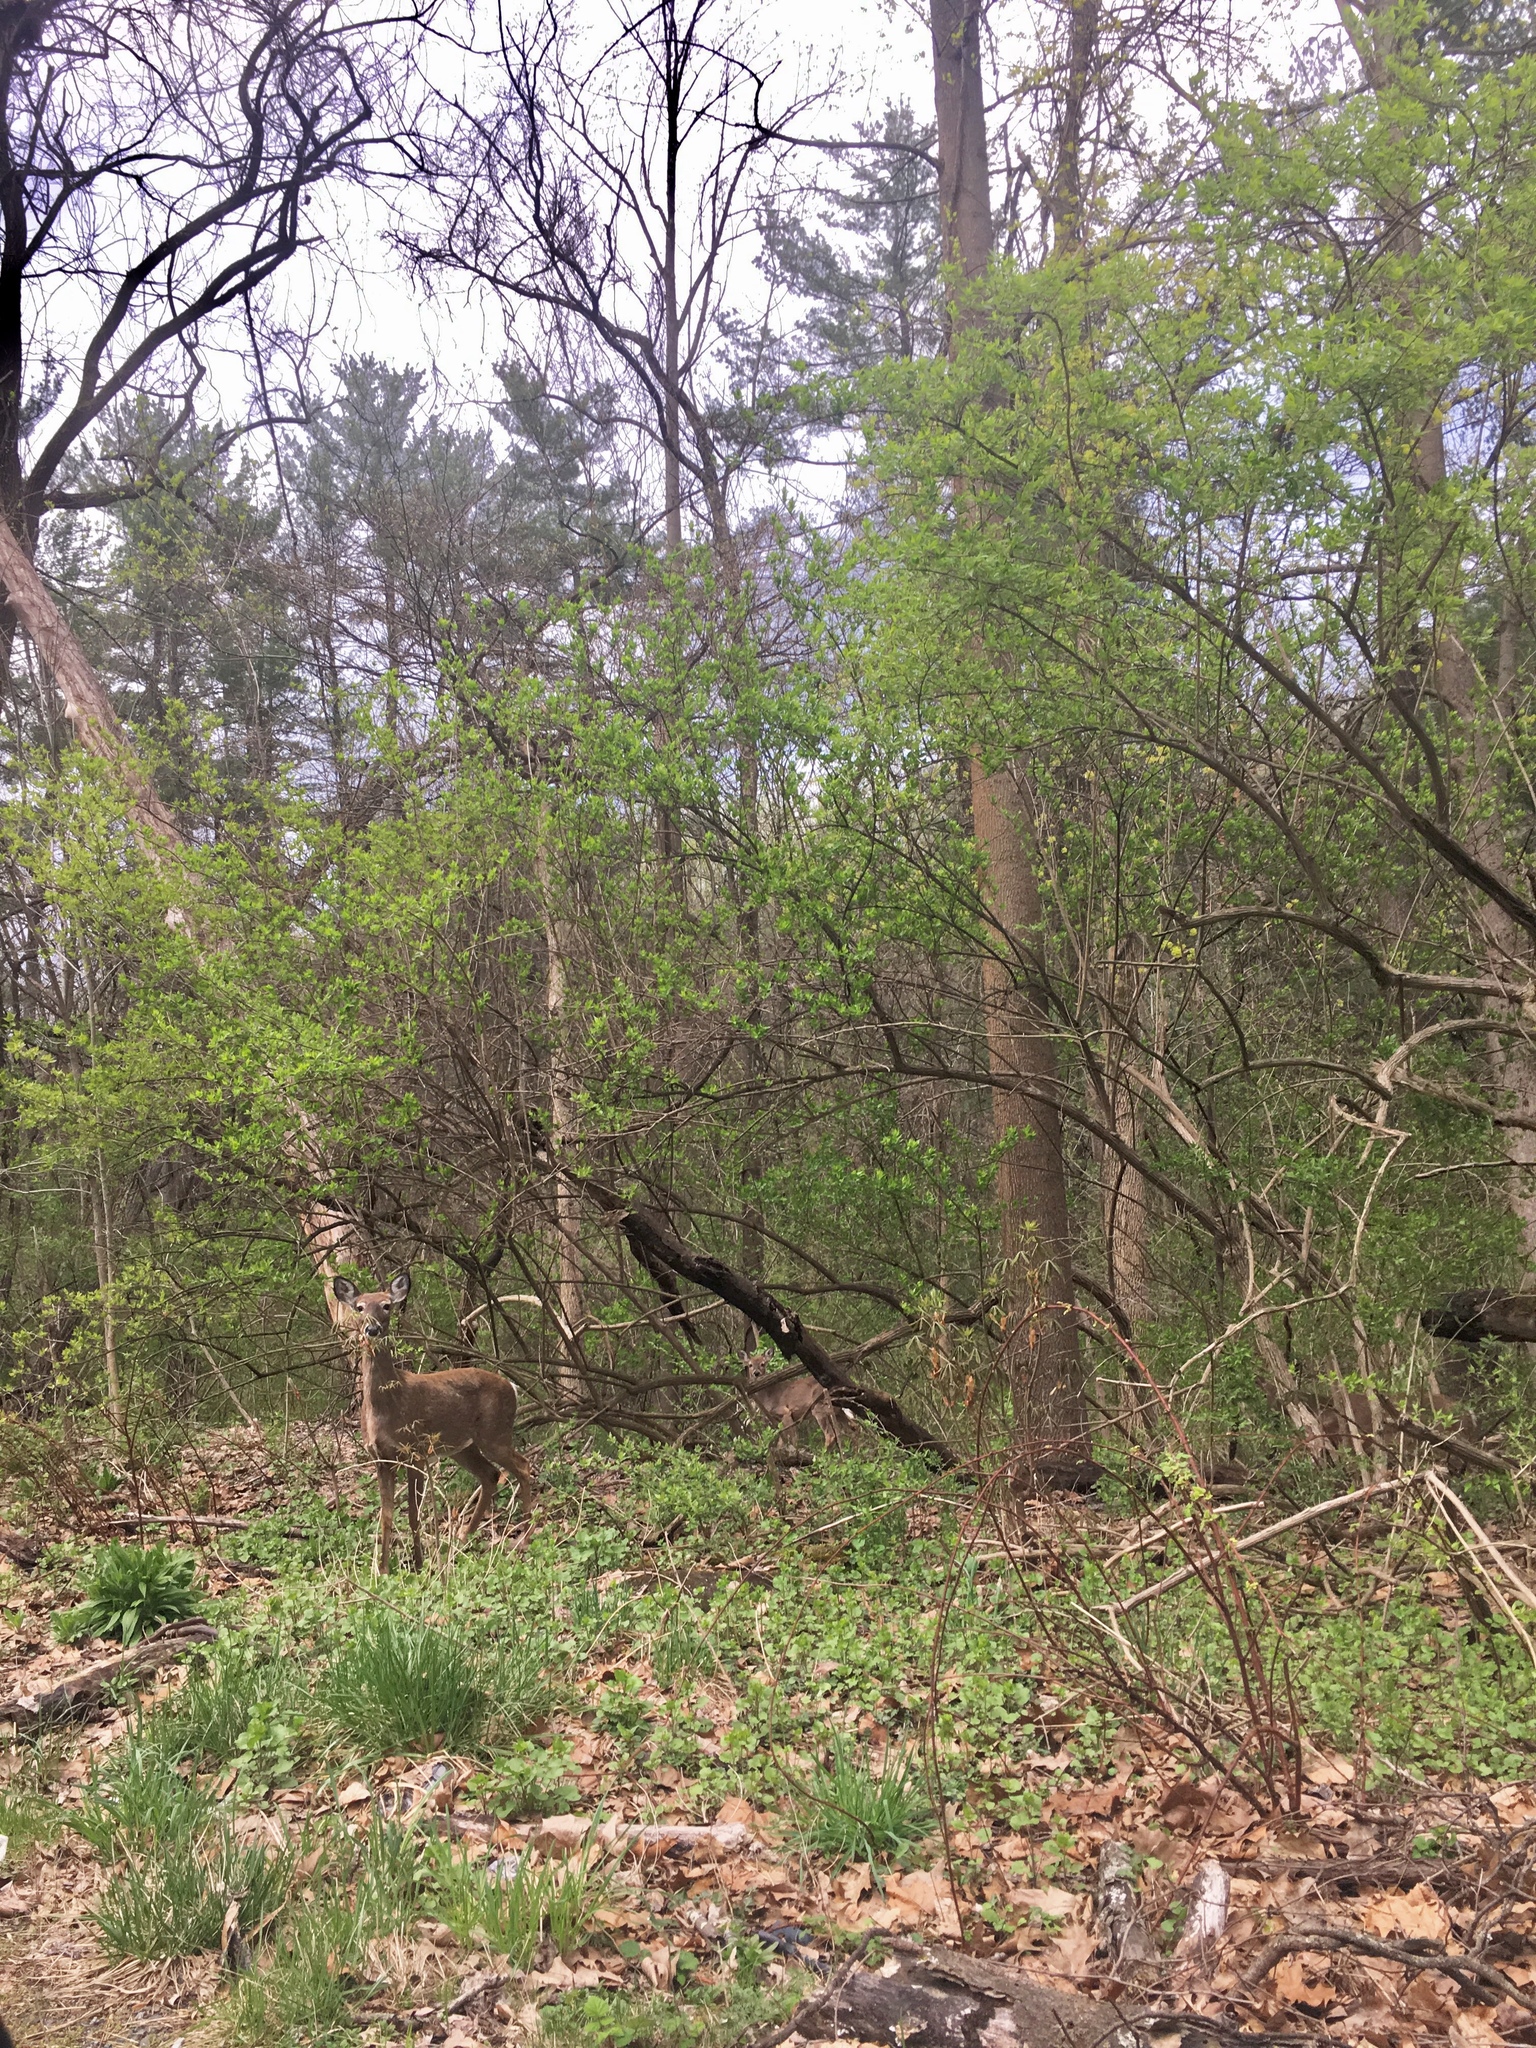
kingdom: Animalia
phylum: Chordata
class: Mammalia
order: Artiodactyla
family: Cervidae
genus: Odocoileus
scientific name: Odocoileus virginianus
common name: White-tailed deer
